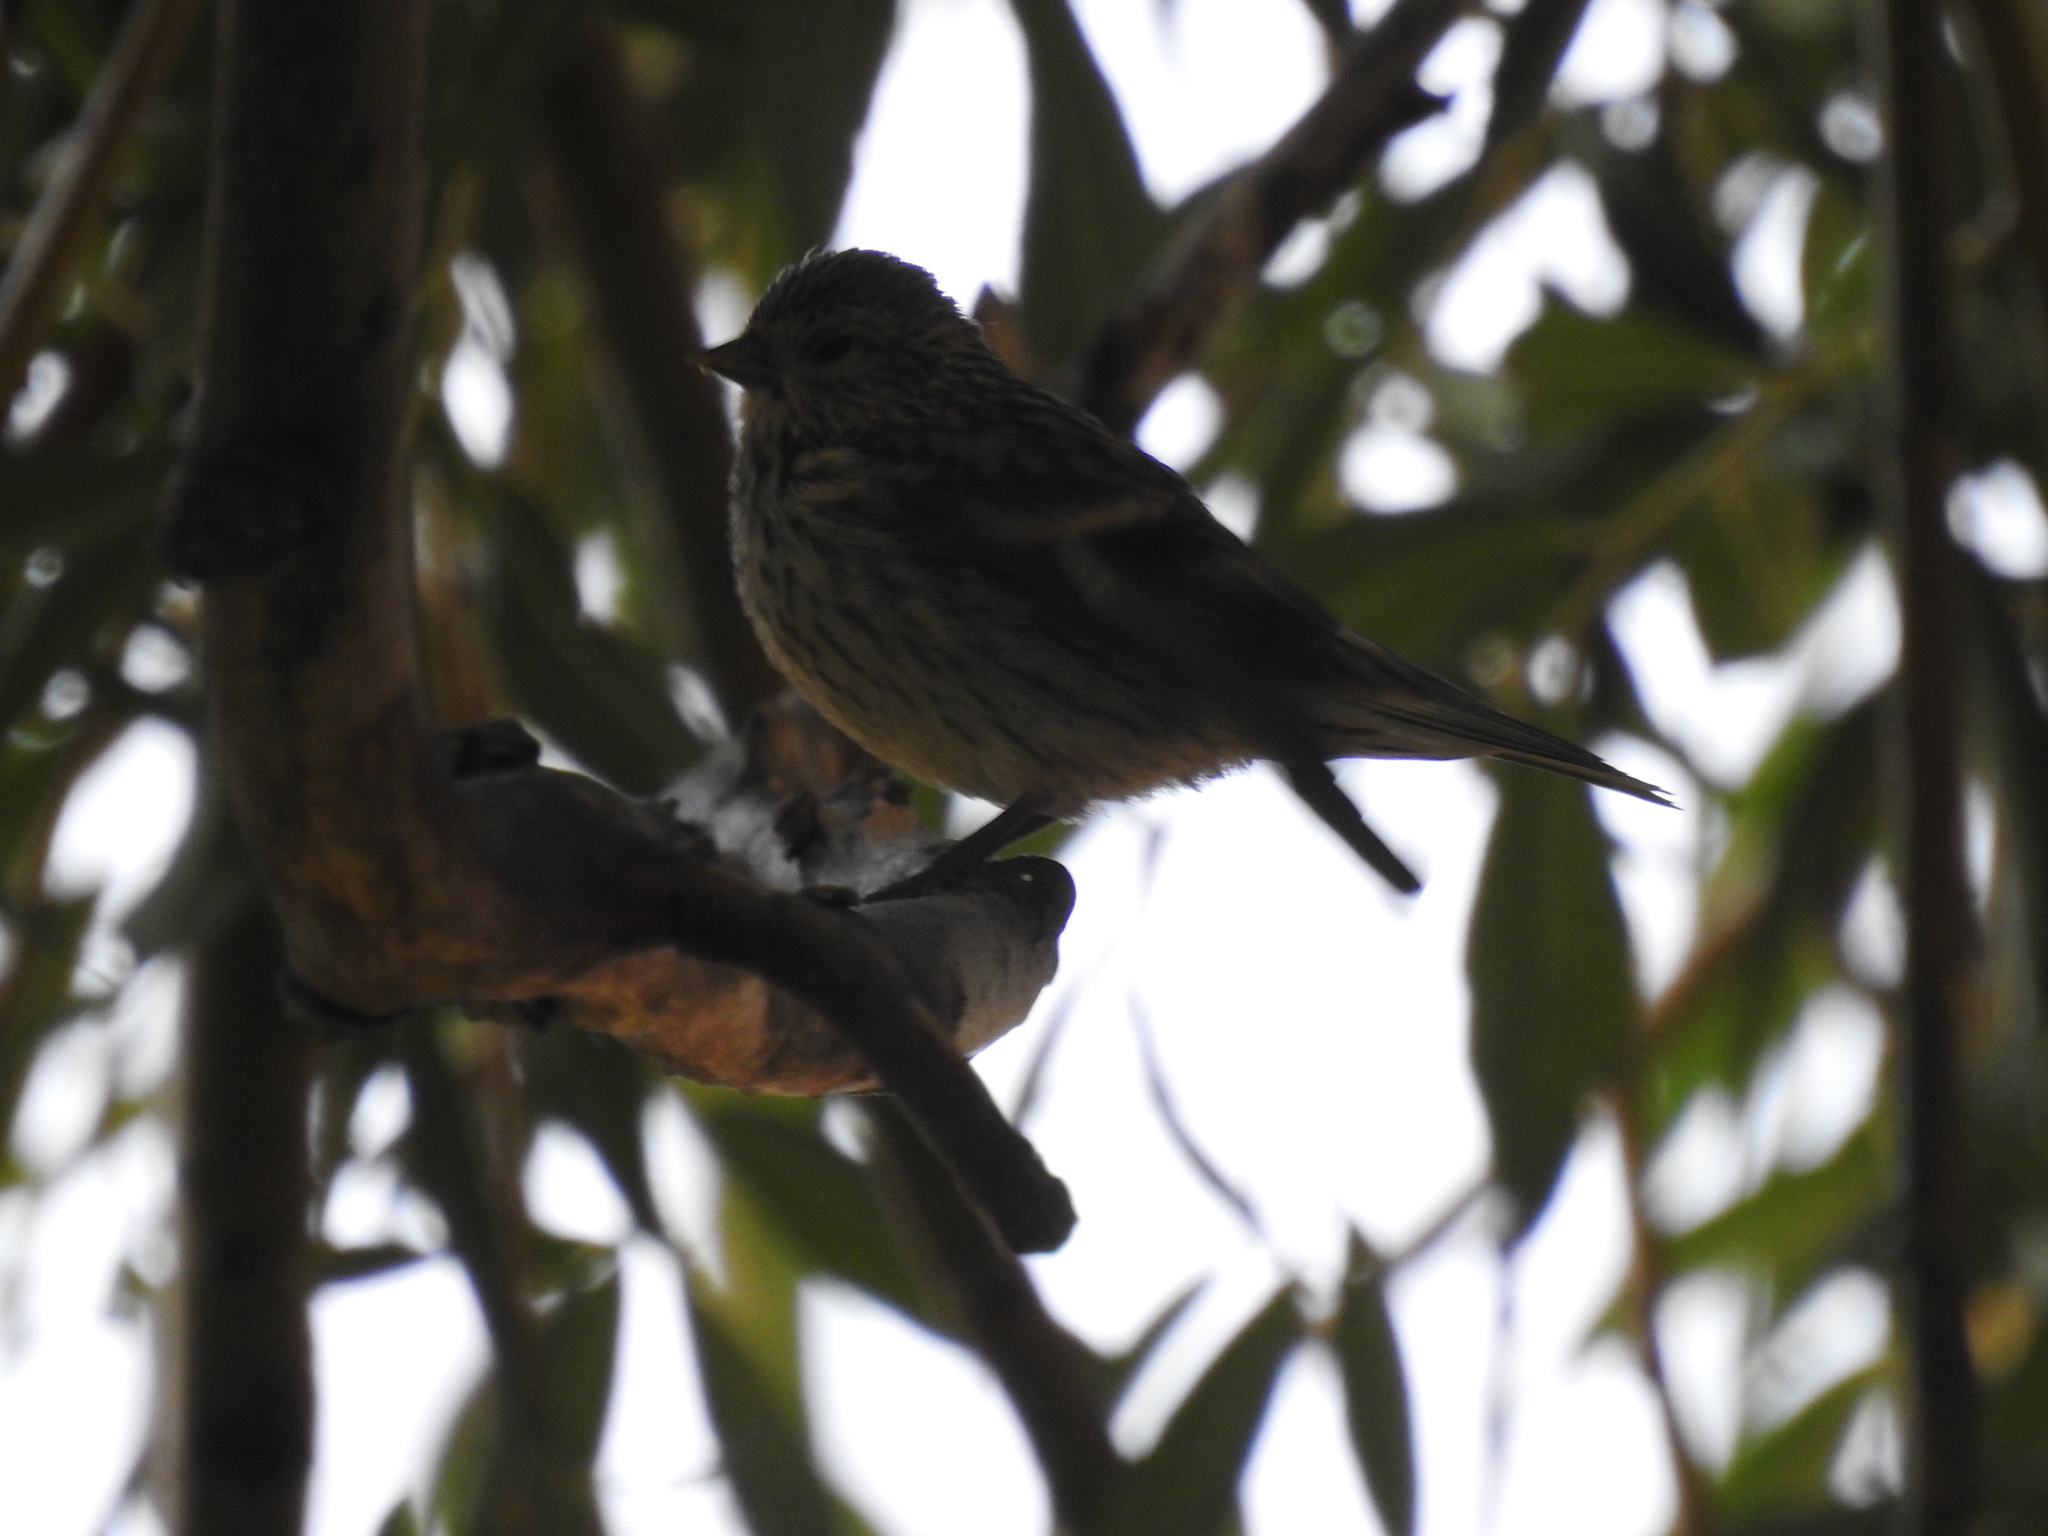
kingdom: Animalia
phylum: Chordata
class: Aves
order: Passeriformes
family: Fringillidae
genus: Spinus
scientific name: Spinus pinus
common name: Pine siskin
